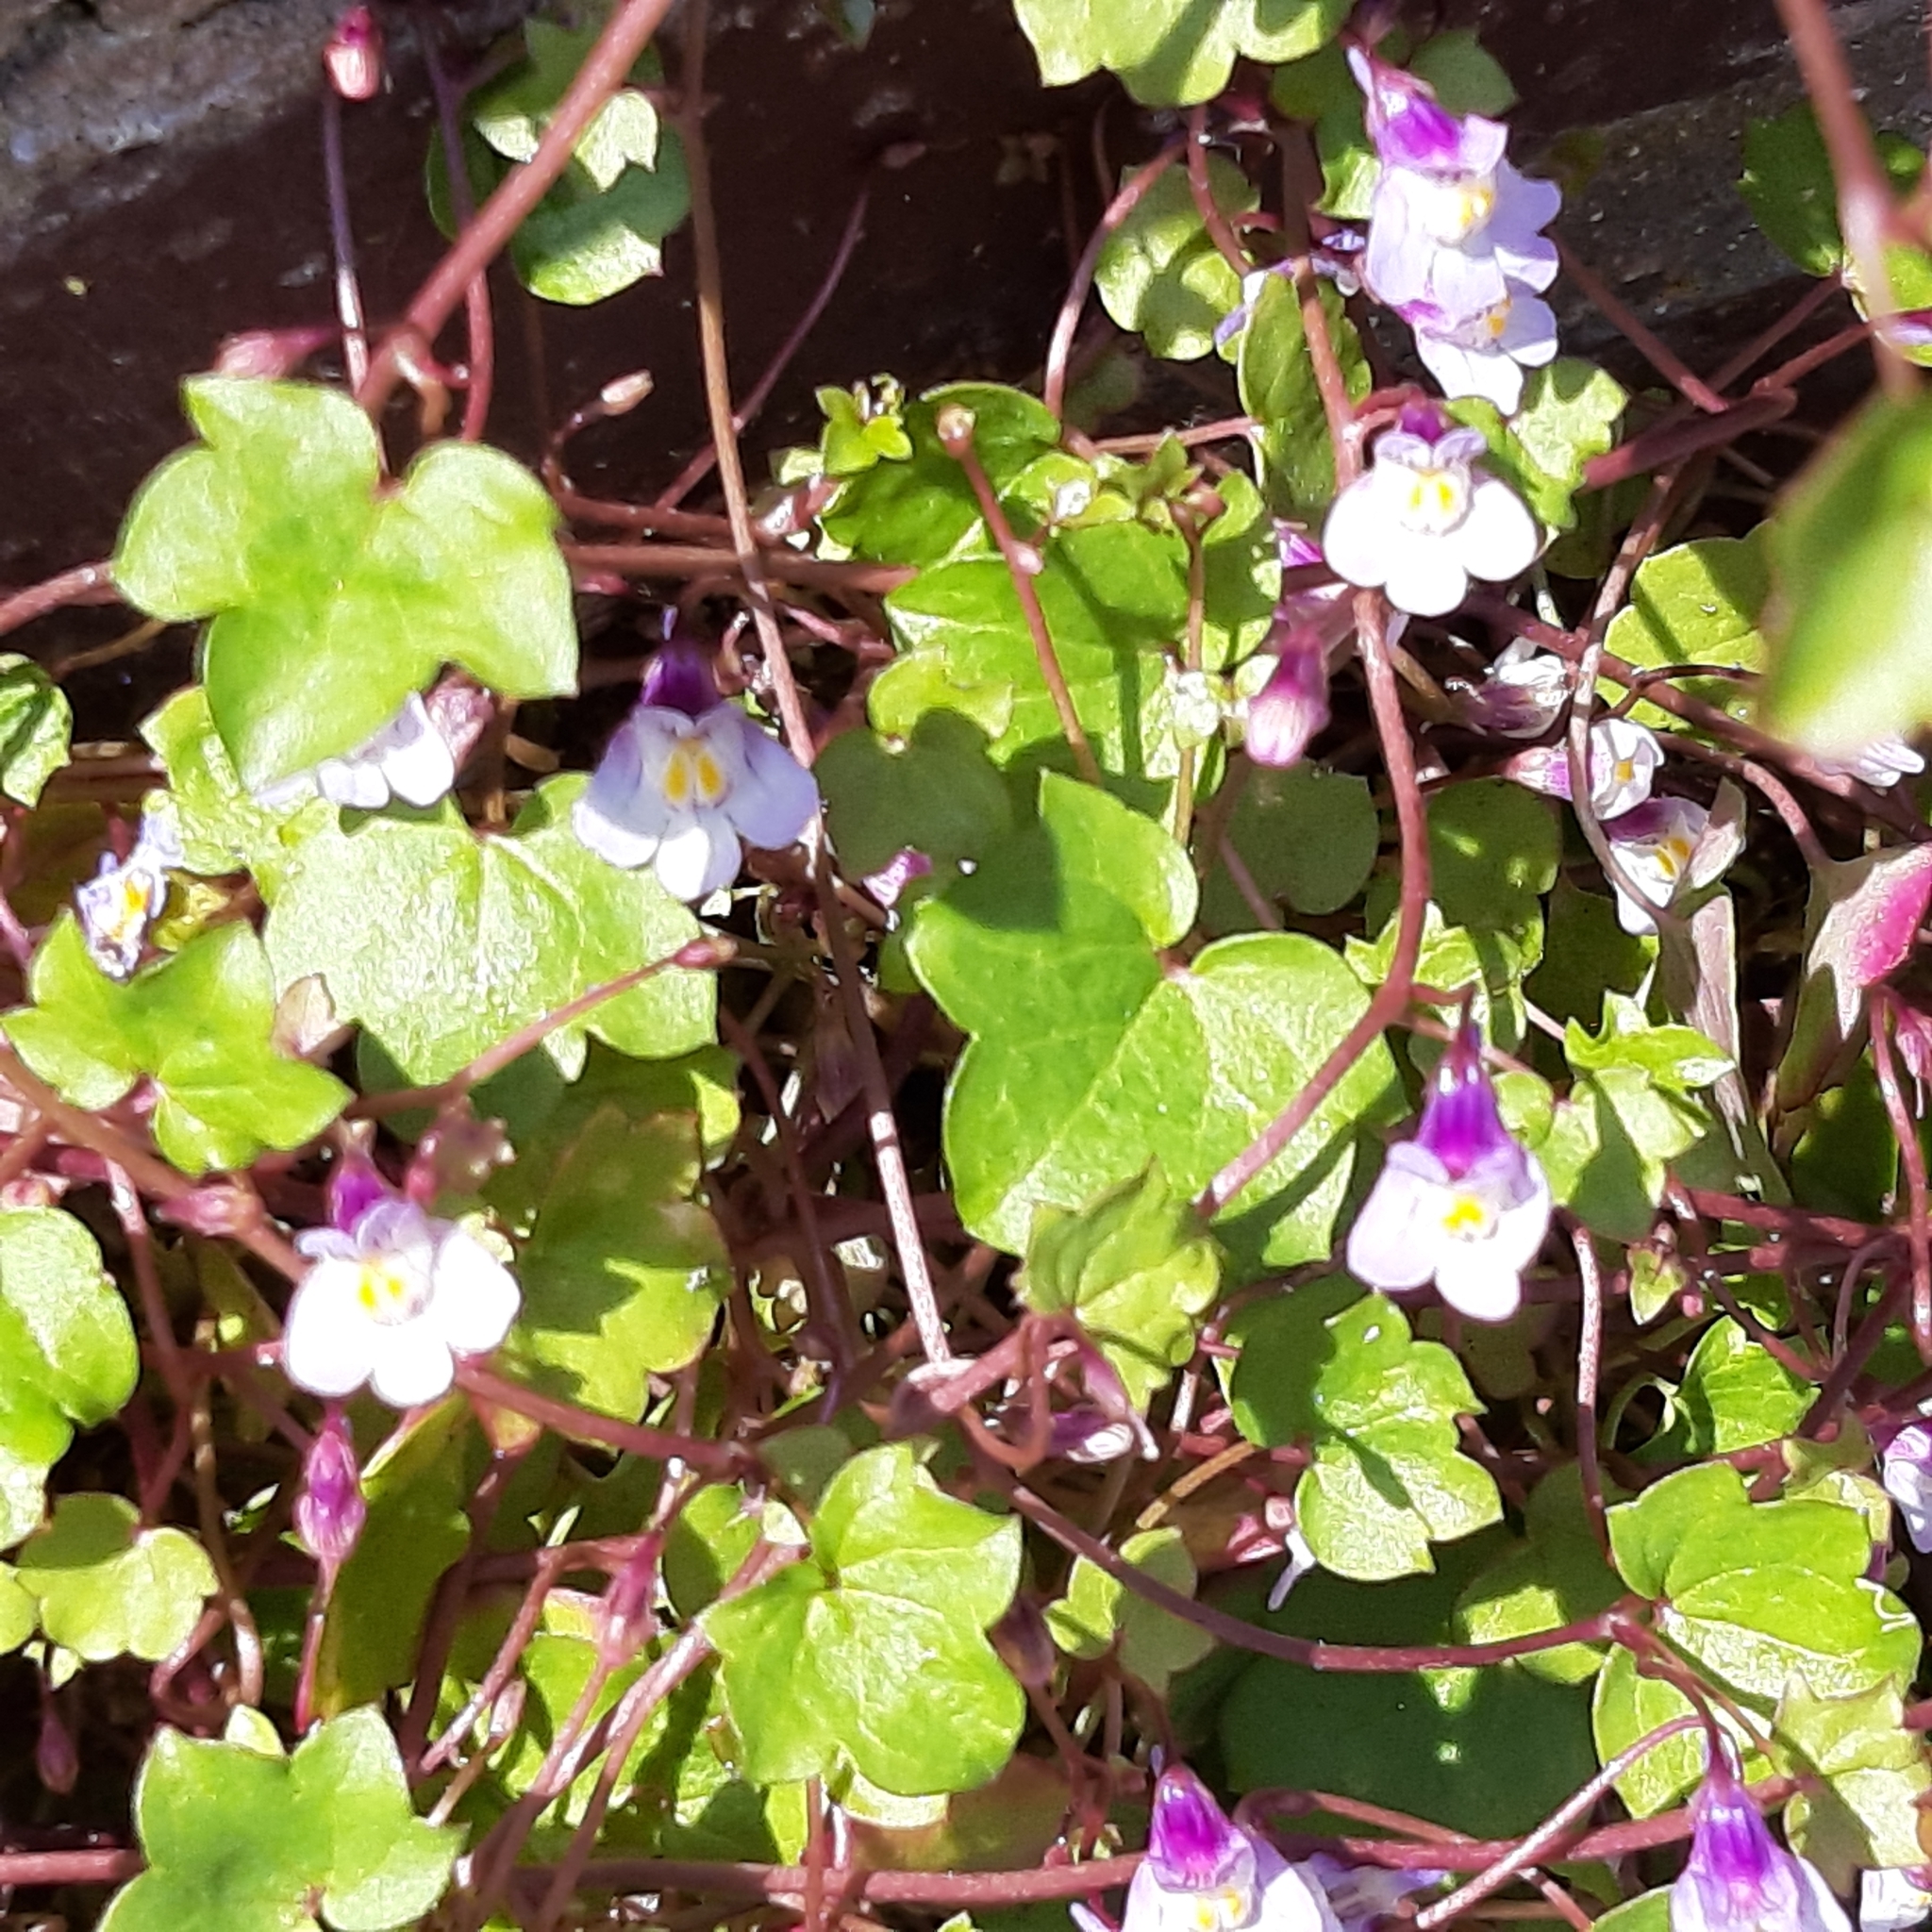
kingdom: Plantae
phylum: Tracheophyta
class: Magnoliopsida
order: Lamiales
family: Plantaginaceae
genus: Cymbalaria
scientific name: Cymbalaria muralis
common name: Ivy-leaved toadflax
